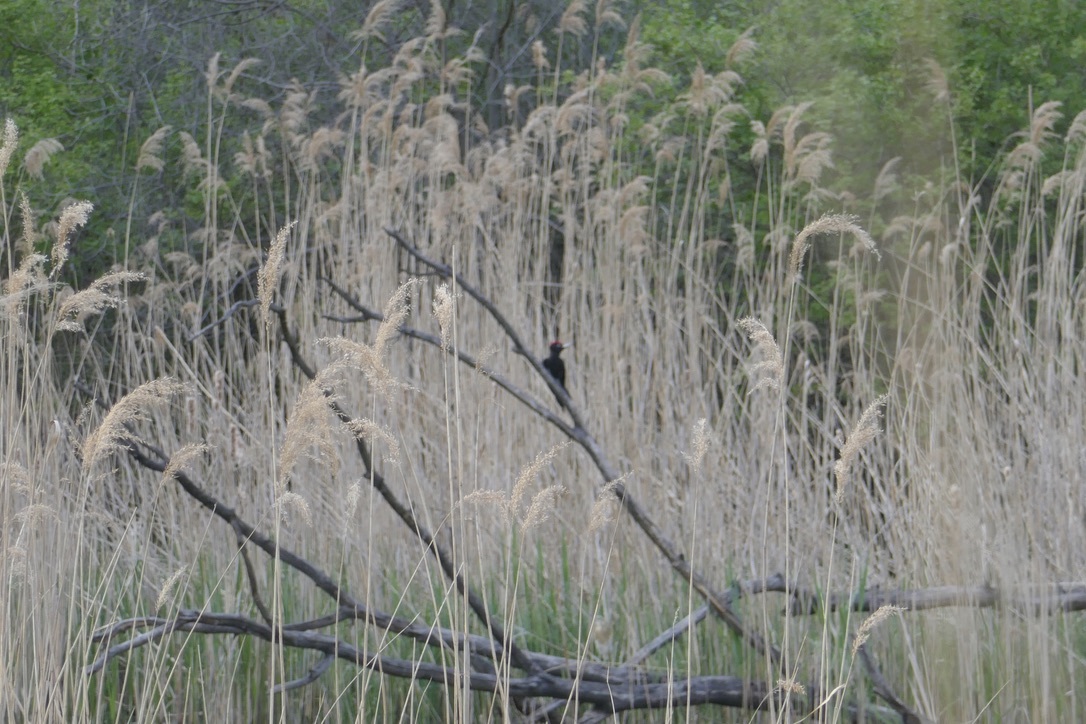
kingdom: Animalia
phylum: Chordata
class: Aves
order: Piciformes
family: Picidae
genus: Dryocopus
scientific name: Dryocopus martius
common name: Black woodpecker
